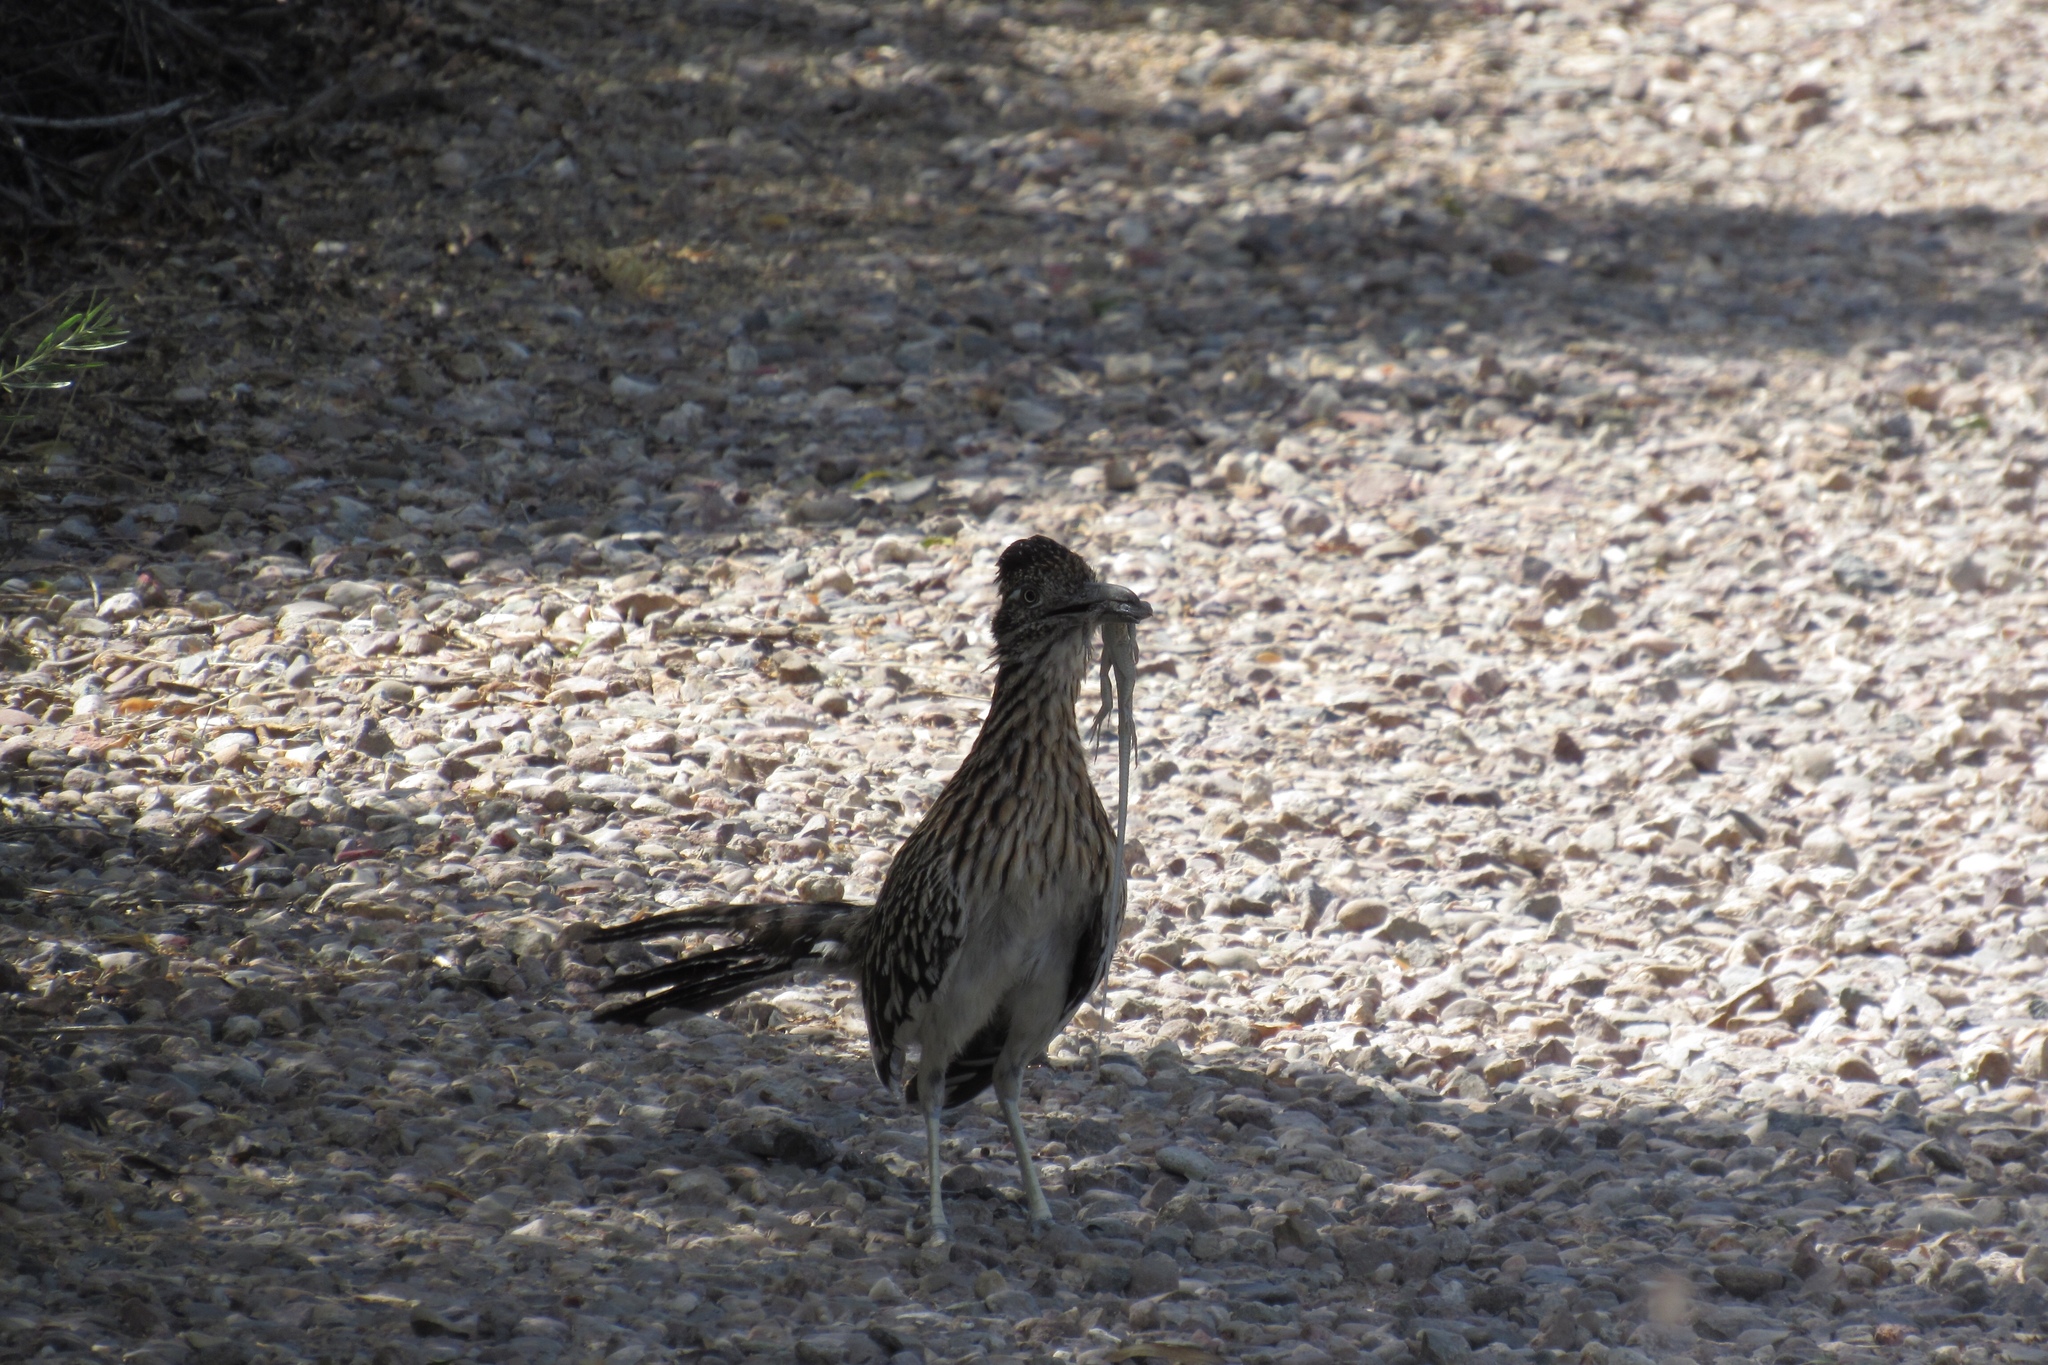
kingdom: Animalia
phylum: Chordata
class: Aves
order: Cuculiformes
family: Cuculidae
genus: Geococcyx
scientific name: Geococcyx californianus
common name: Greater roadrunner
